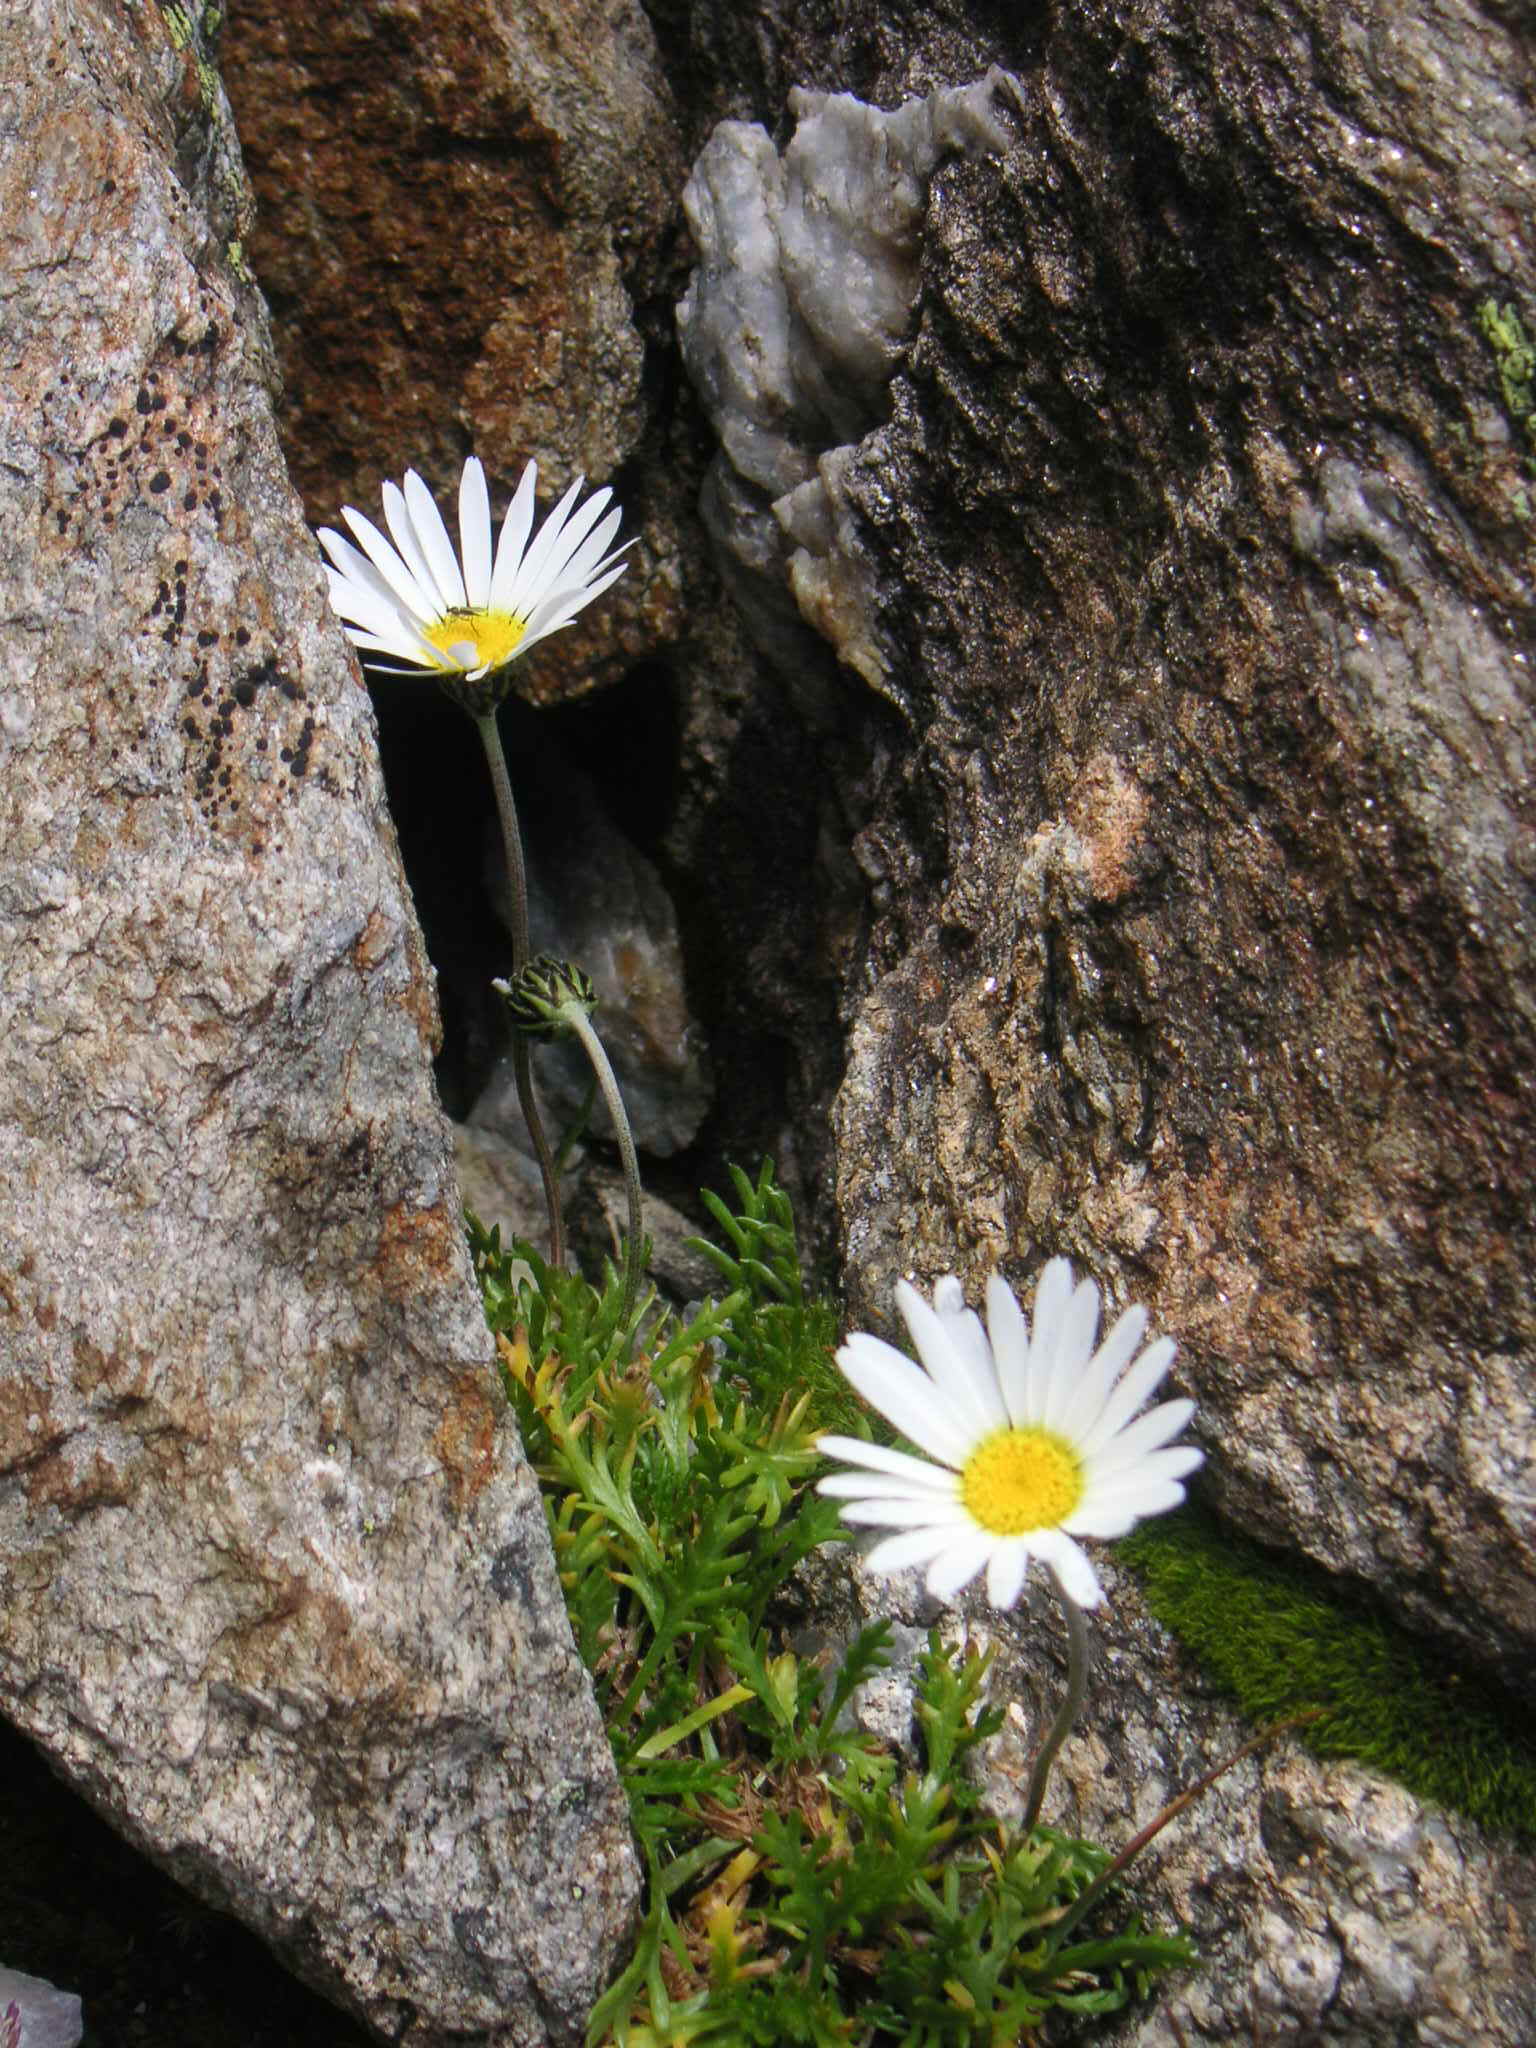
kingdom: Plantae
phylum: Tracheophyta
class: Magnoliopsida
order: Asterales
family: Asteraceae
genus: Leucanthemopsis
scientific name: Leucanthemopsis alpina
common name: Alpine moon daisy
